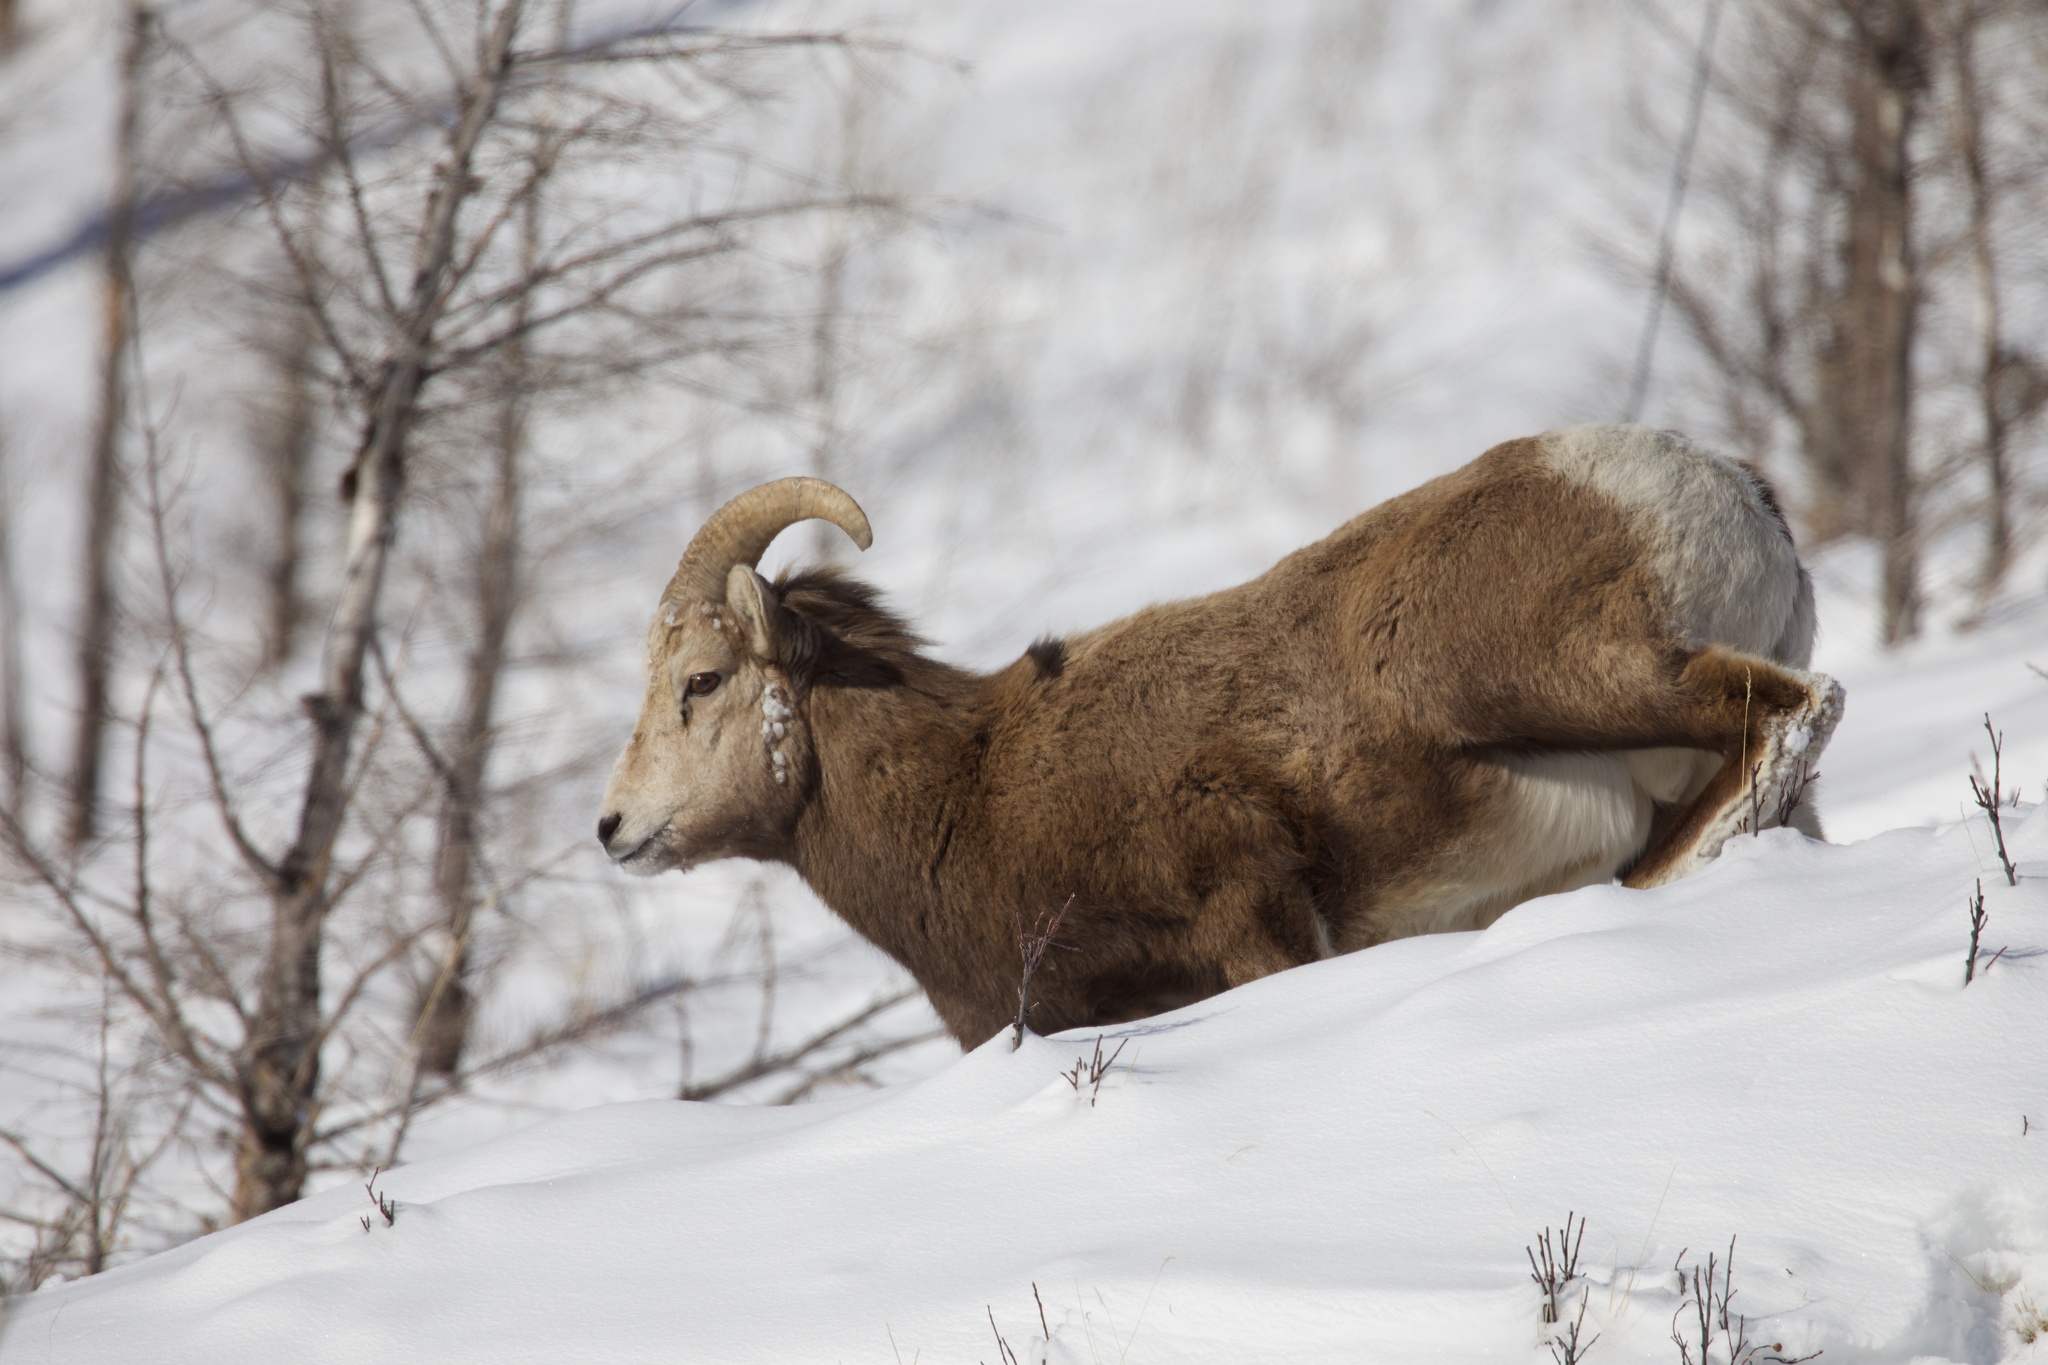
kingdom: Animalia
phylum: Chordata
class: Mammalia
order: Artiodactyla
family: Bovidae
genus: Ovis
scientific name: Ovis canadensis
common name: Bighorn sheep
